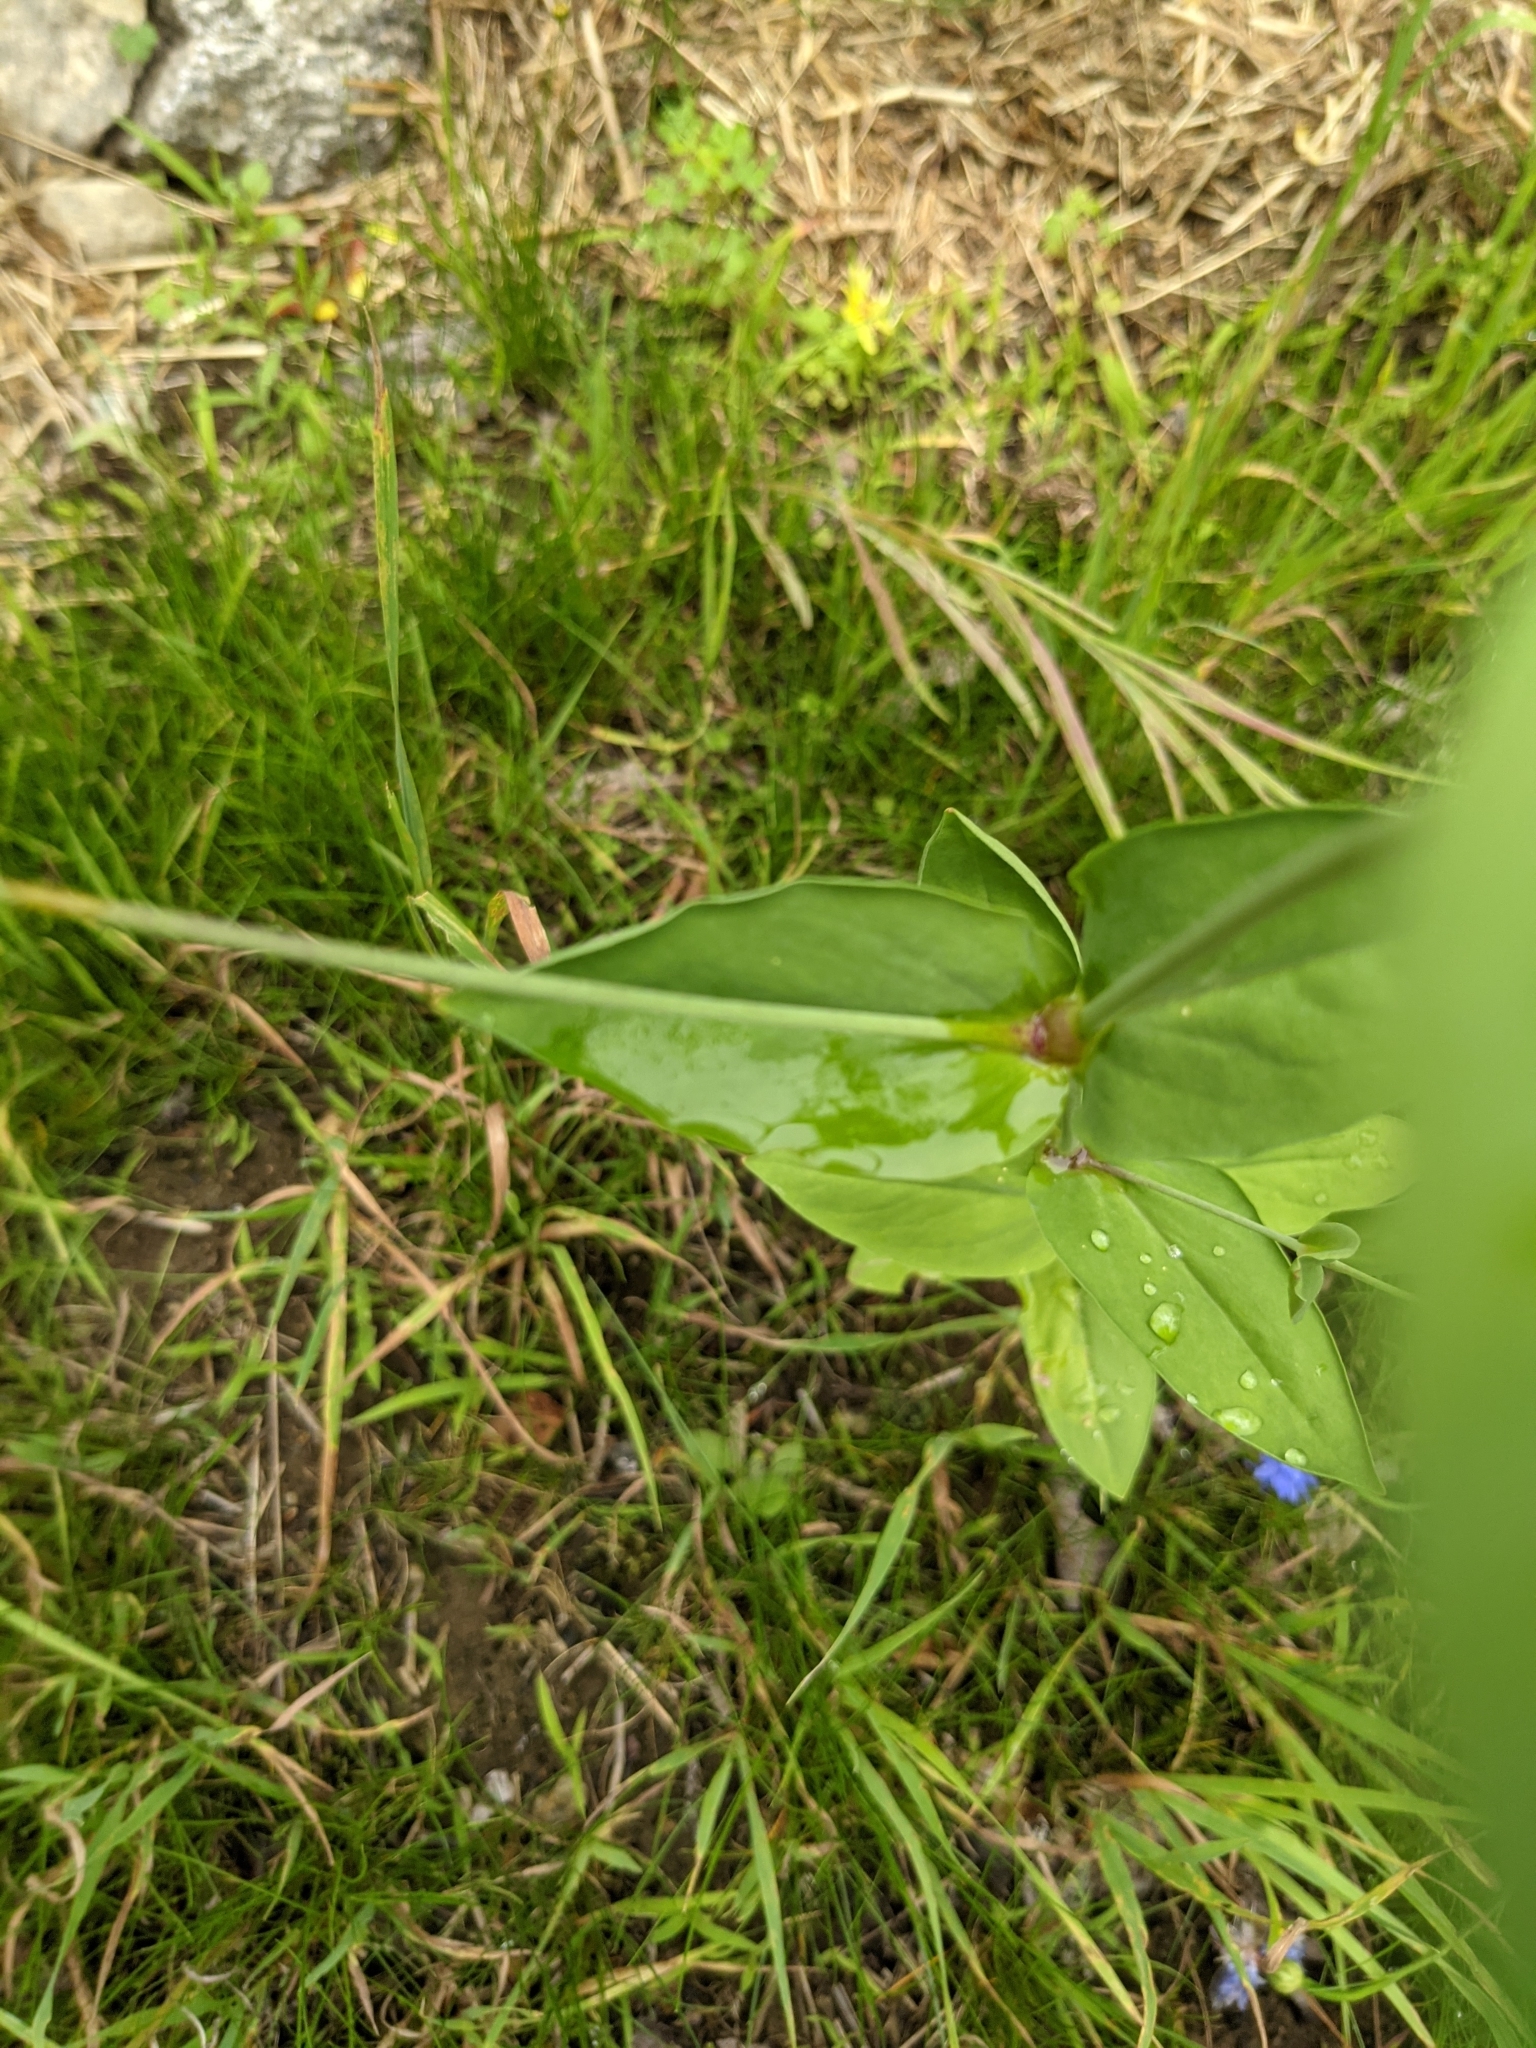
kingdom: Plantae
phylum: Tracheophyta
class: Magnoliopsida
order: Caryophyllales
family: Caryophyllaceae
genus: Atocion
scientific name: Atocion armeria
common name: Sweet william catchfly
